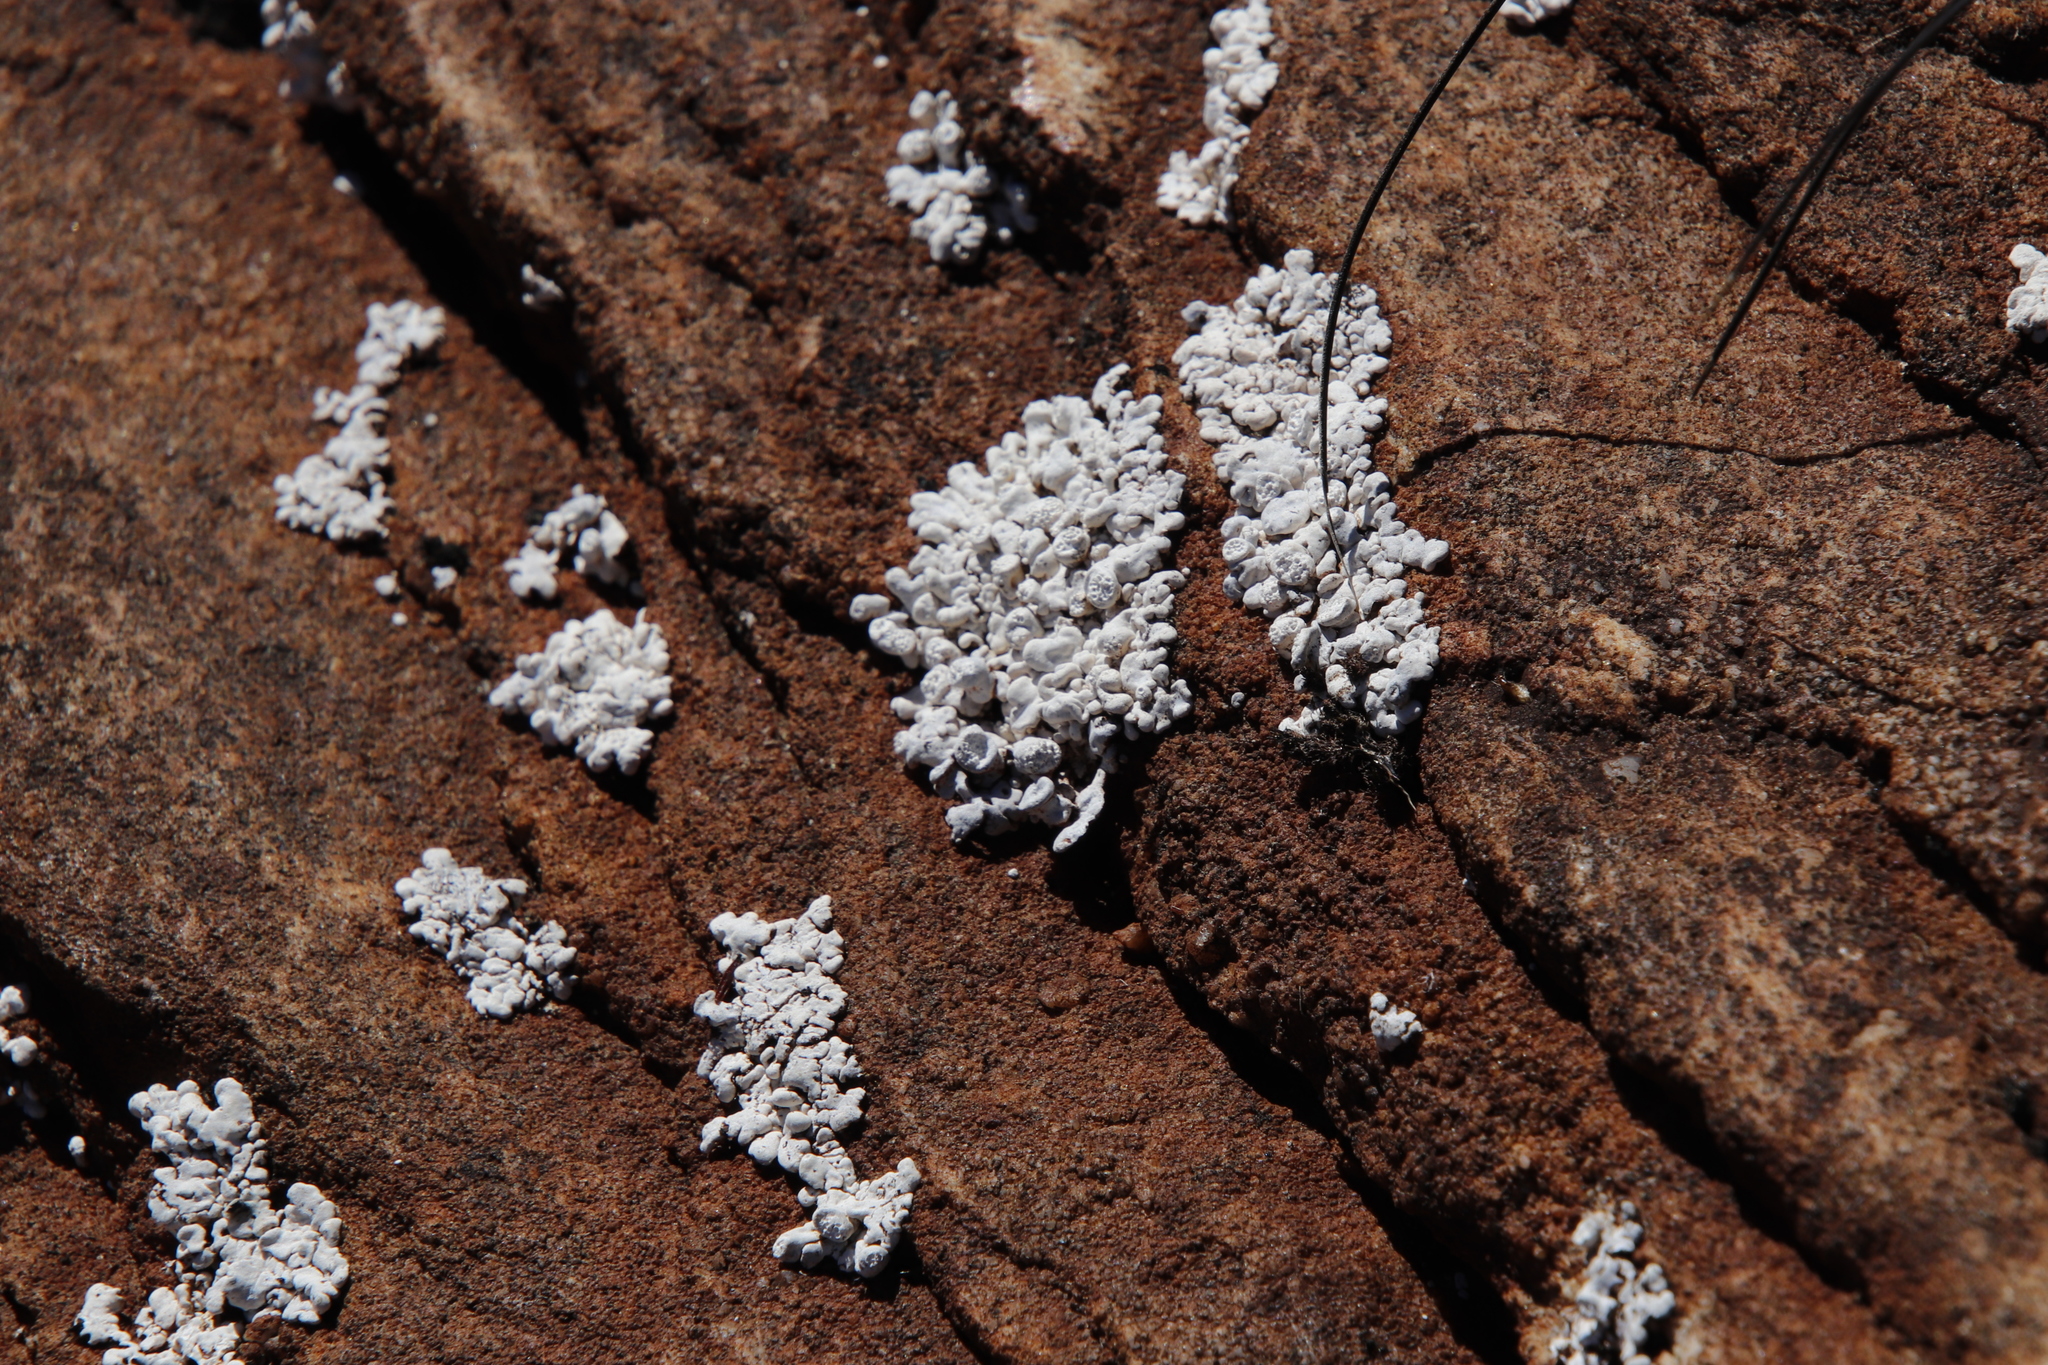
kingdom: Fungi
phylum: Ascomycota
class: Lecanoromycetes
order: Pertusariales
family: Icmadophilaceae
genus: Siphula
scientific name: Siphula verrucigera
